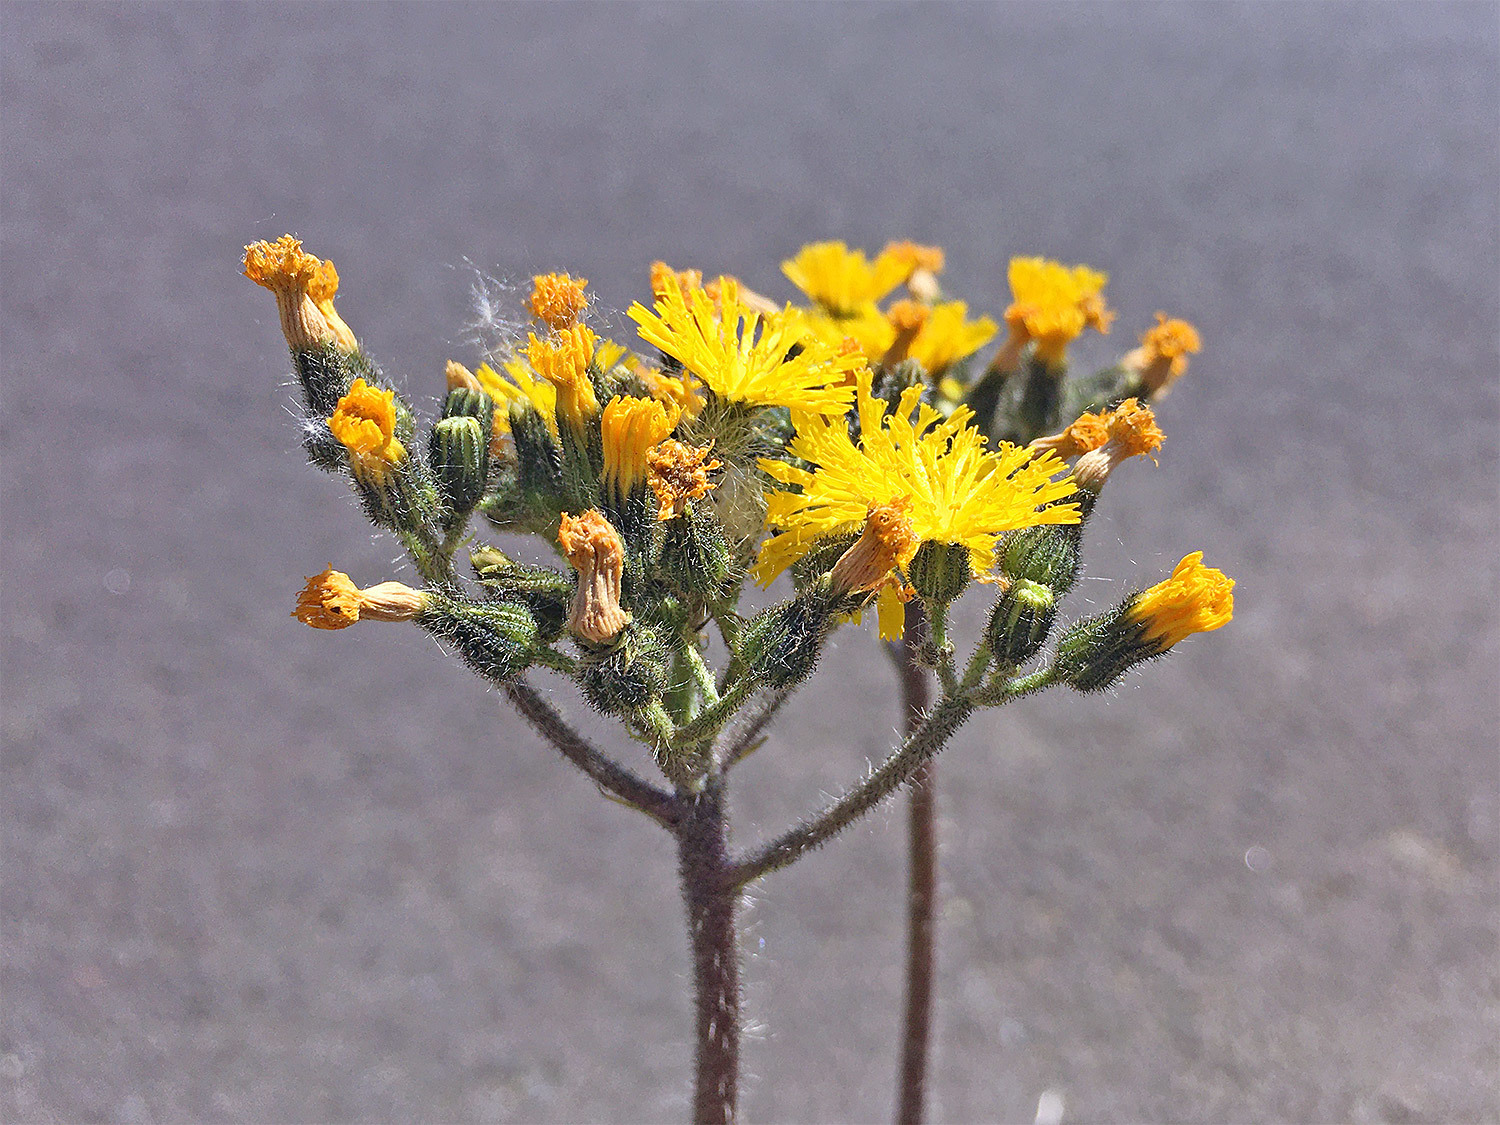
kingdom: Plantae
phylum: Tracheophyta
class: Magnoliopsida
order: Asterales
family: Asteraceae
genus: Pilosella
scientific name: Pilosella caespitosa
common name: Yellow fox-and-cubs
